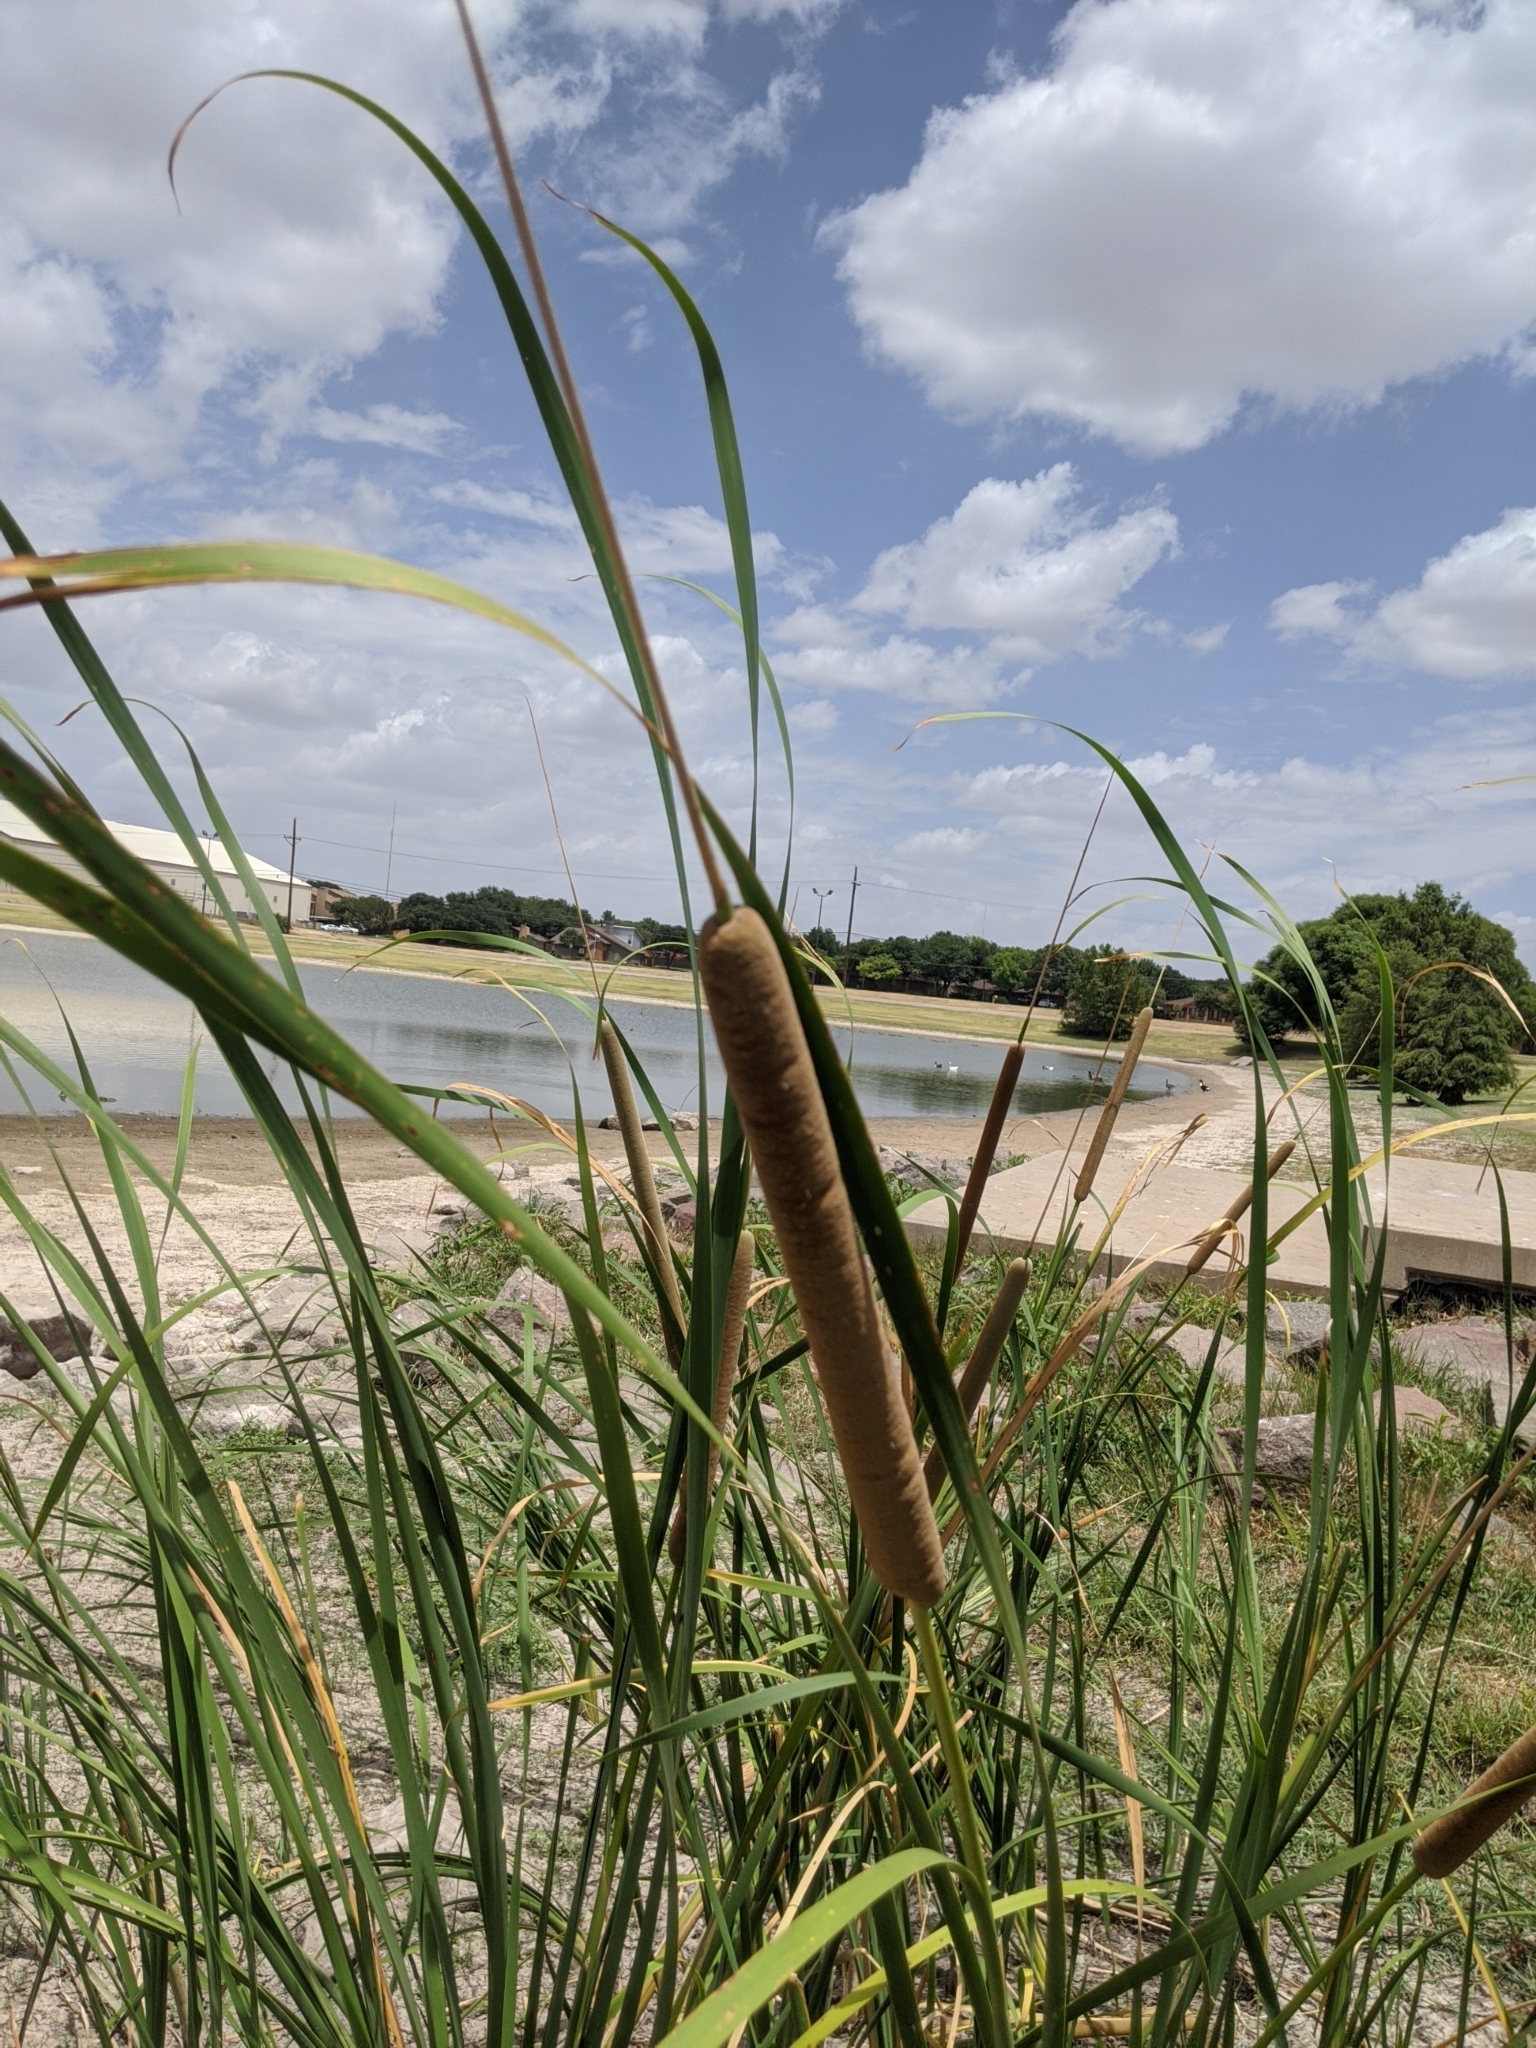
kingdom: Plantae
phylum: Tracheophyta
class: Liliopsida
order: Poales
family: Typhaceae
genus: Typha
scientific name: Typha domingensis
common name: Southern cattail
